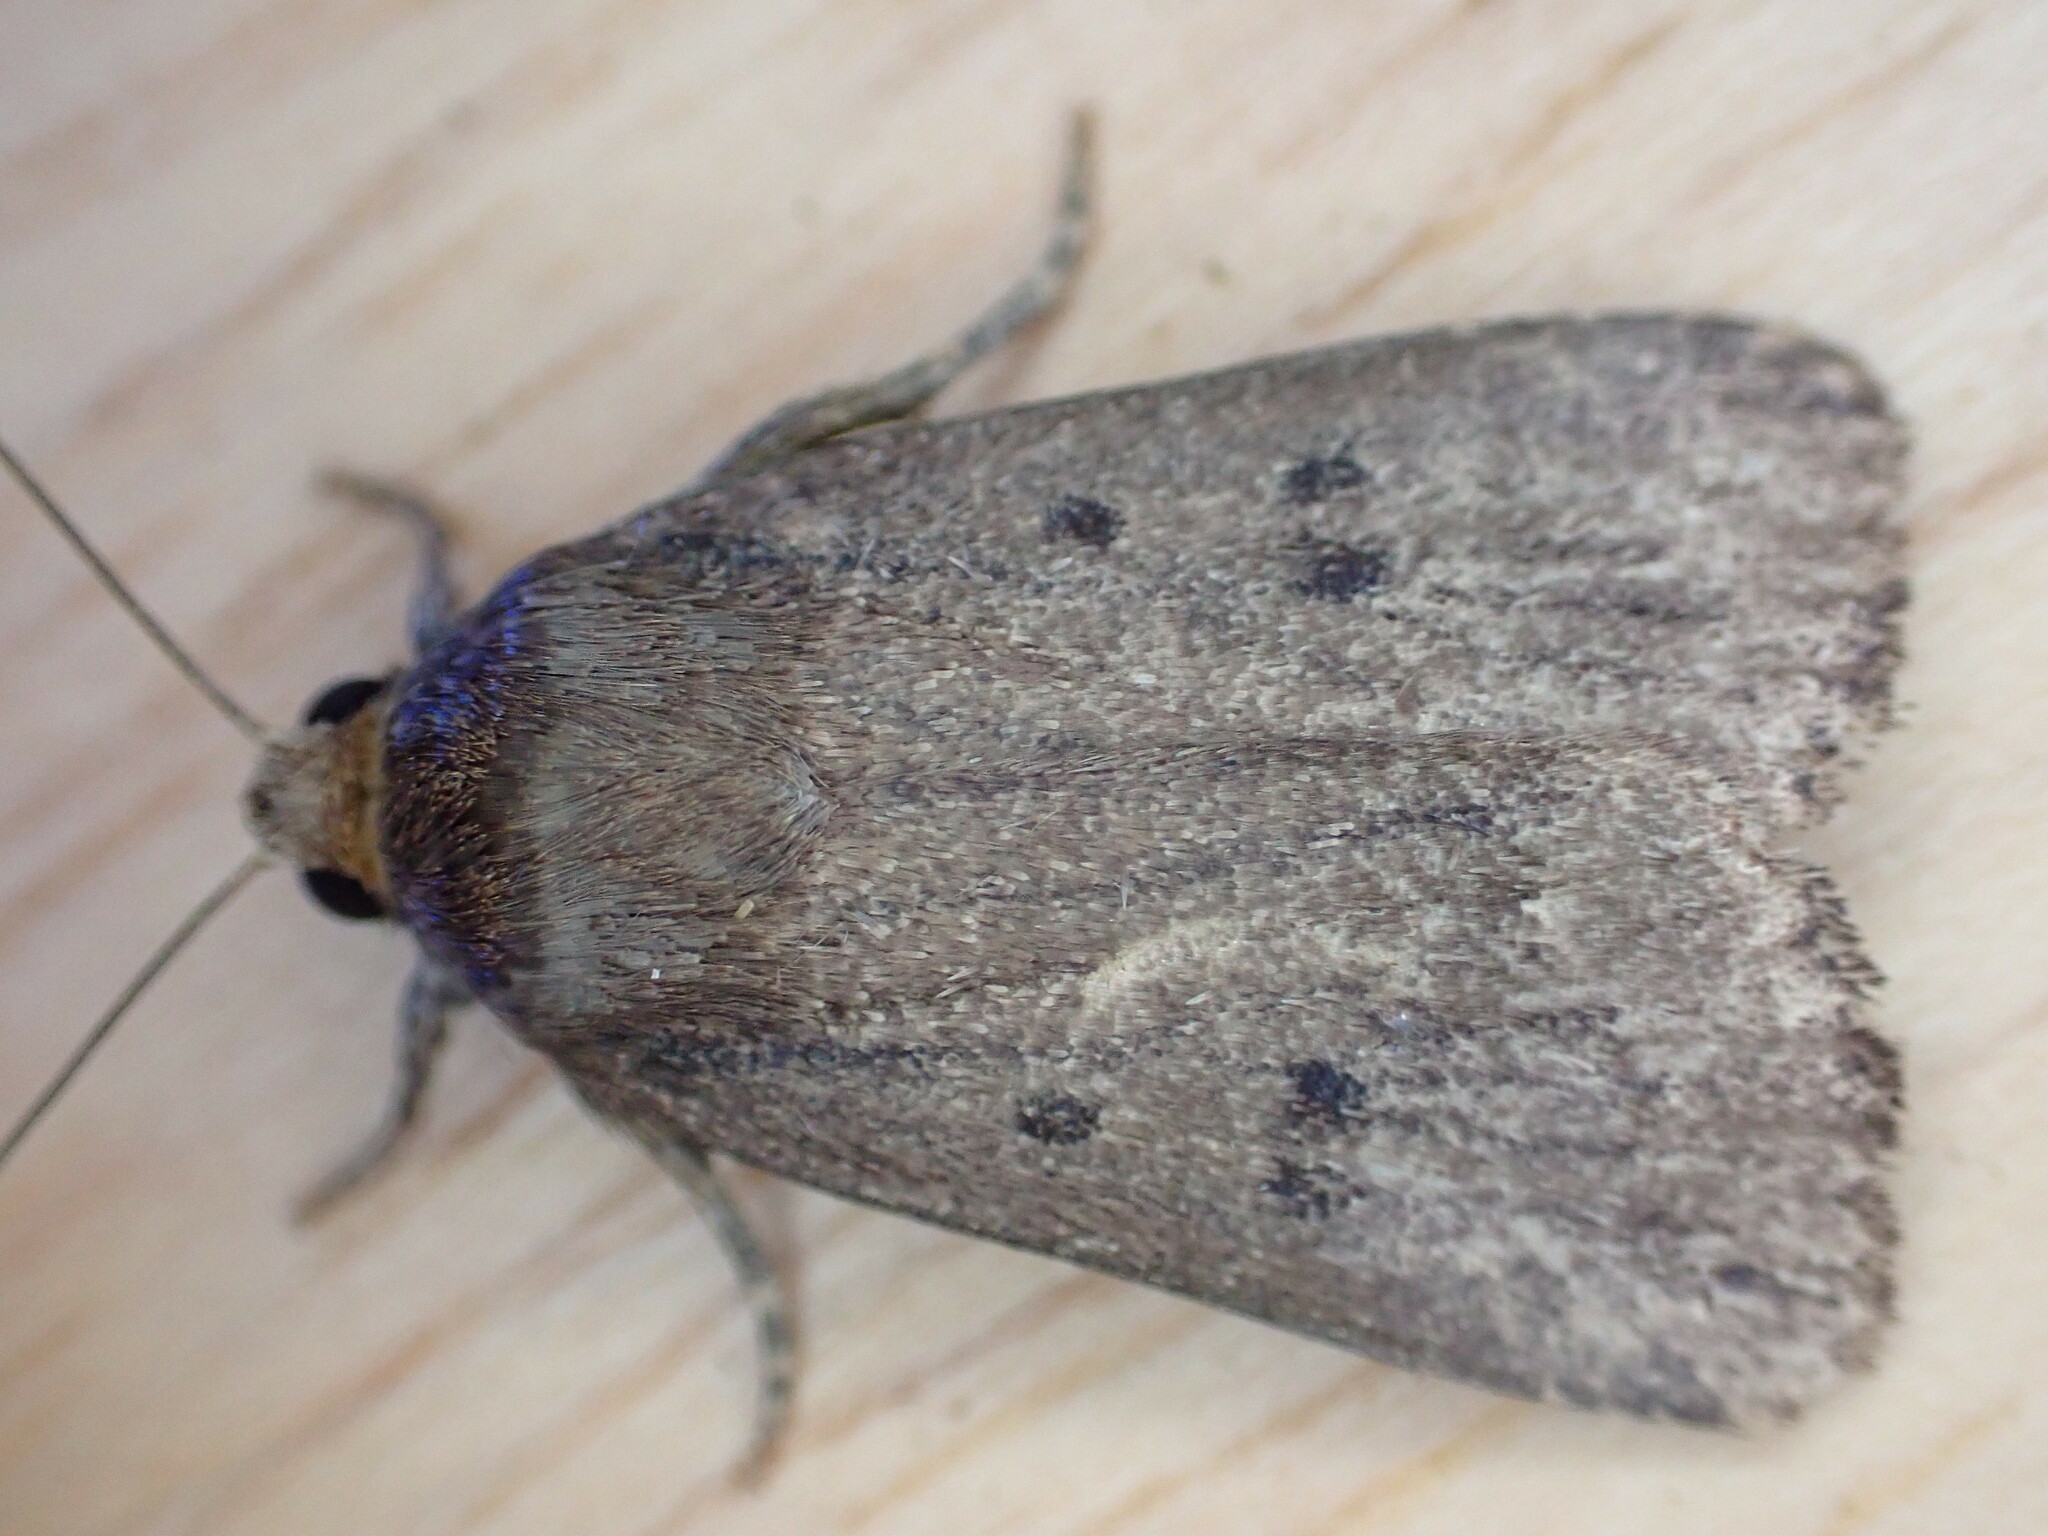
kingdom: Animalia
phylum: Arthropoda
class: Insecta
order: Lepidoptera
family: Noctuidae
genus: Amphipyra
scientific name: Amphipyra tragopoginis
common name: Mouse moth
